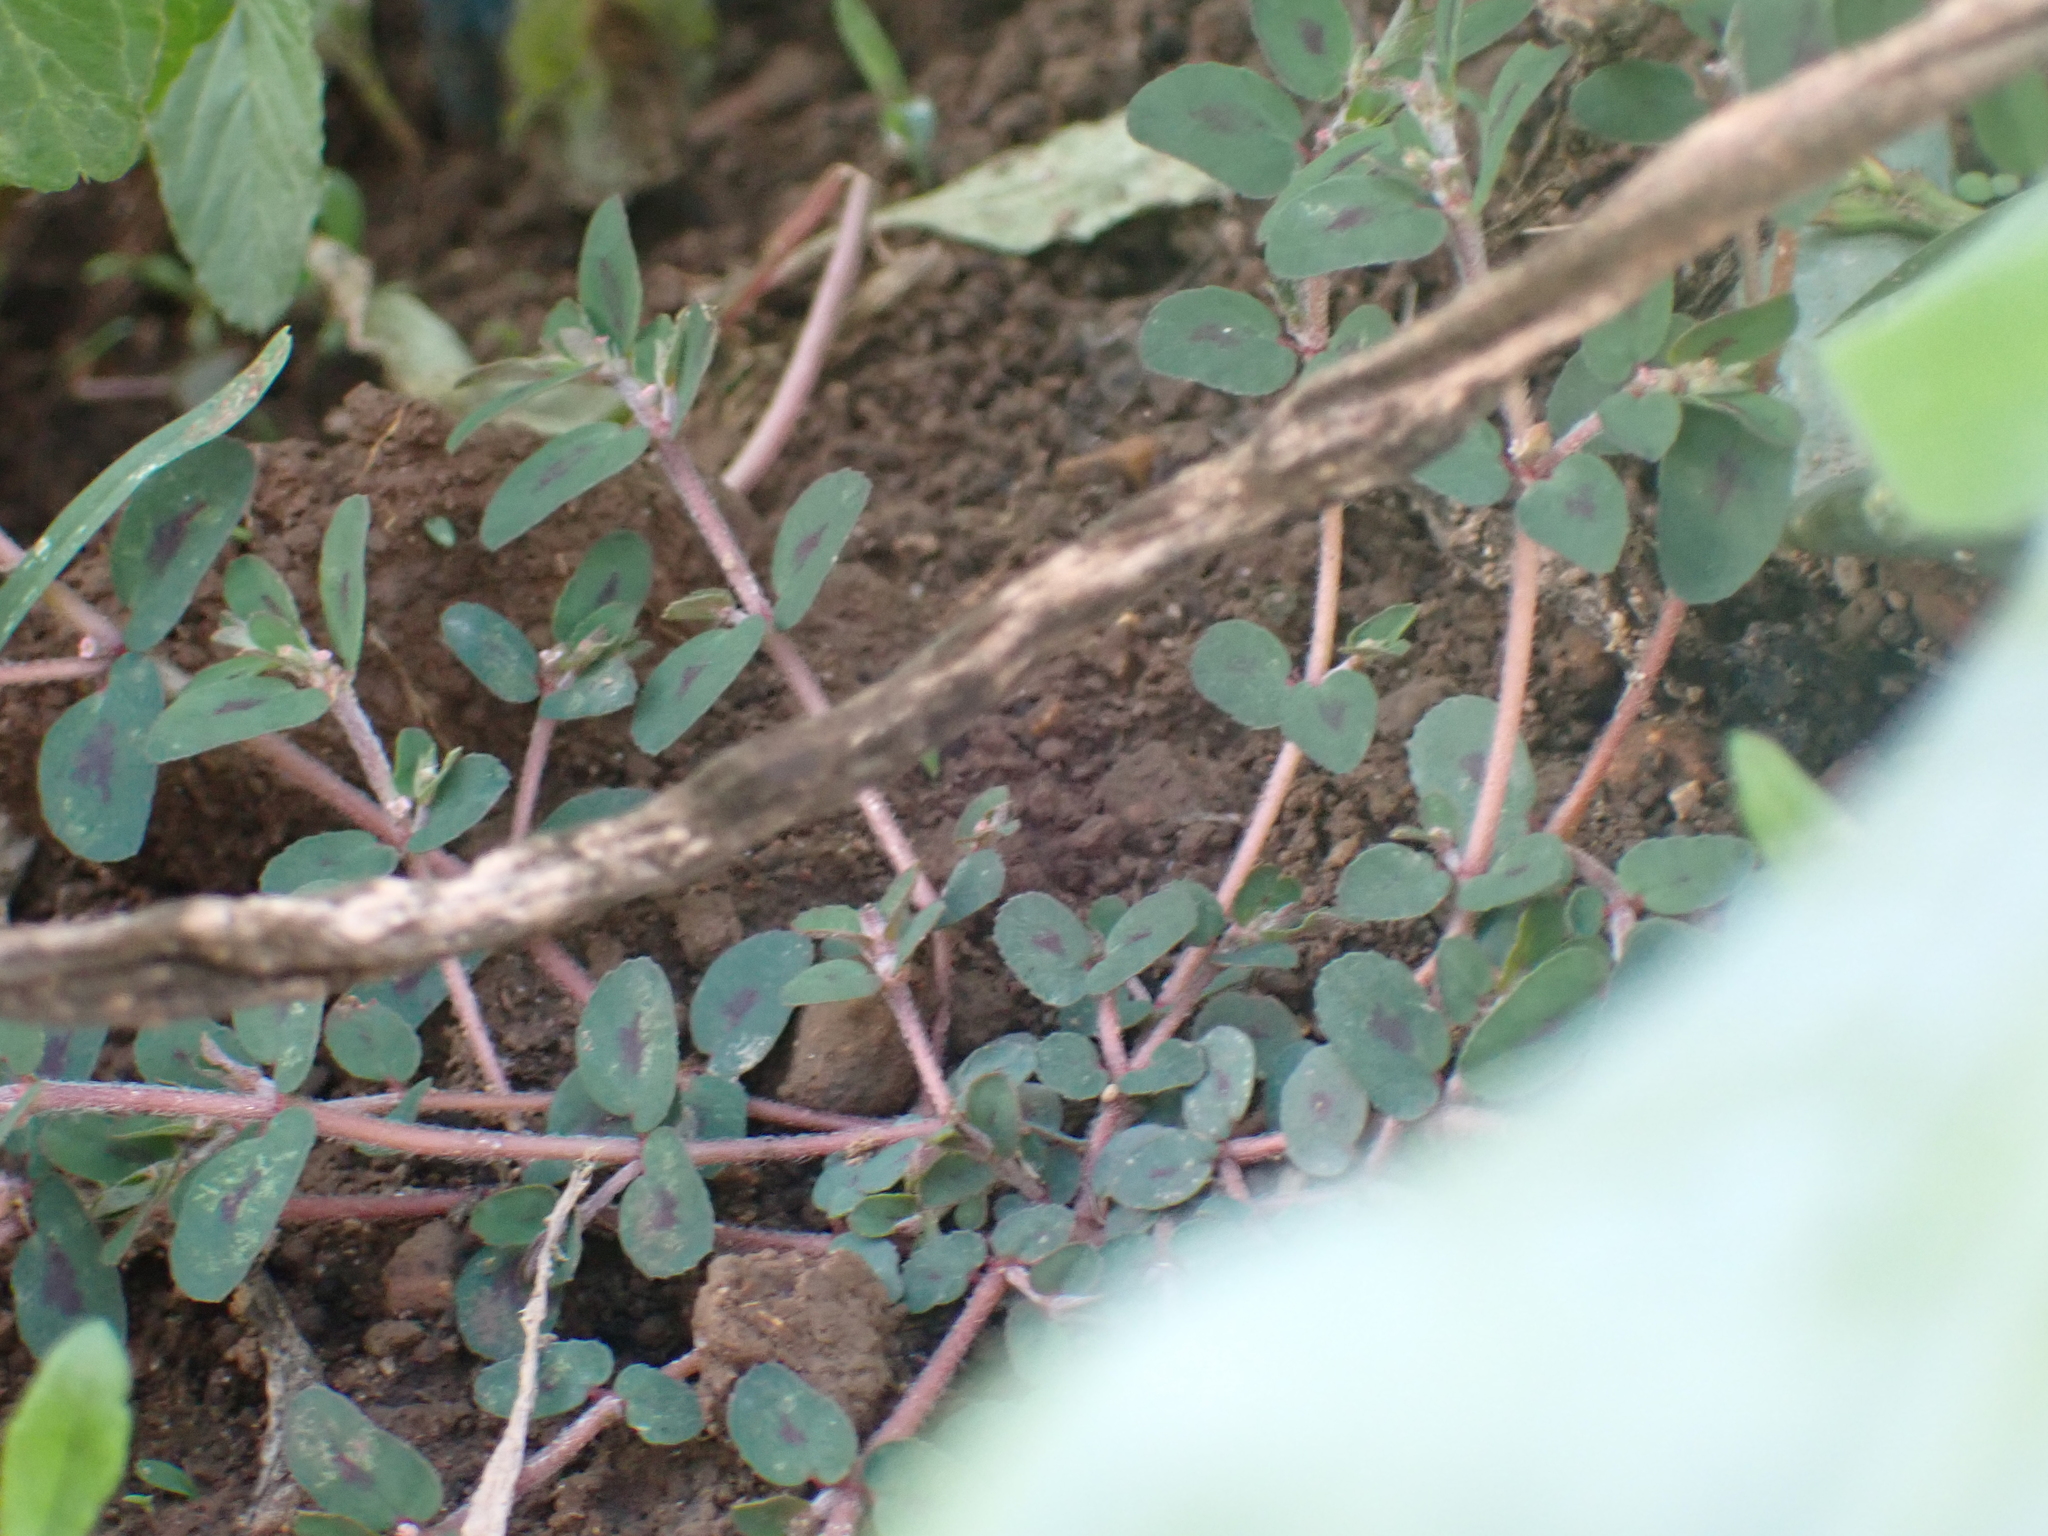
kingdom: Plantae
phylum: Tracheophyta
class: Magnoliopsida
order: Malpighiales
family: Euphorbiaceae
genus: Euphorbia
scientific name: Euphorbia maculata
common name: Spotted spurge
